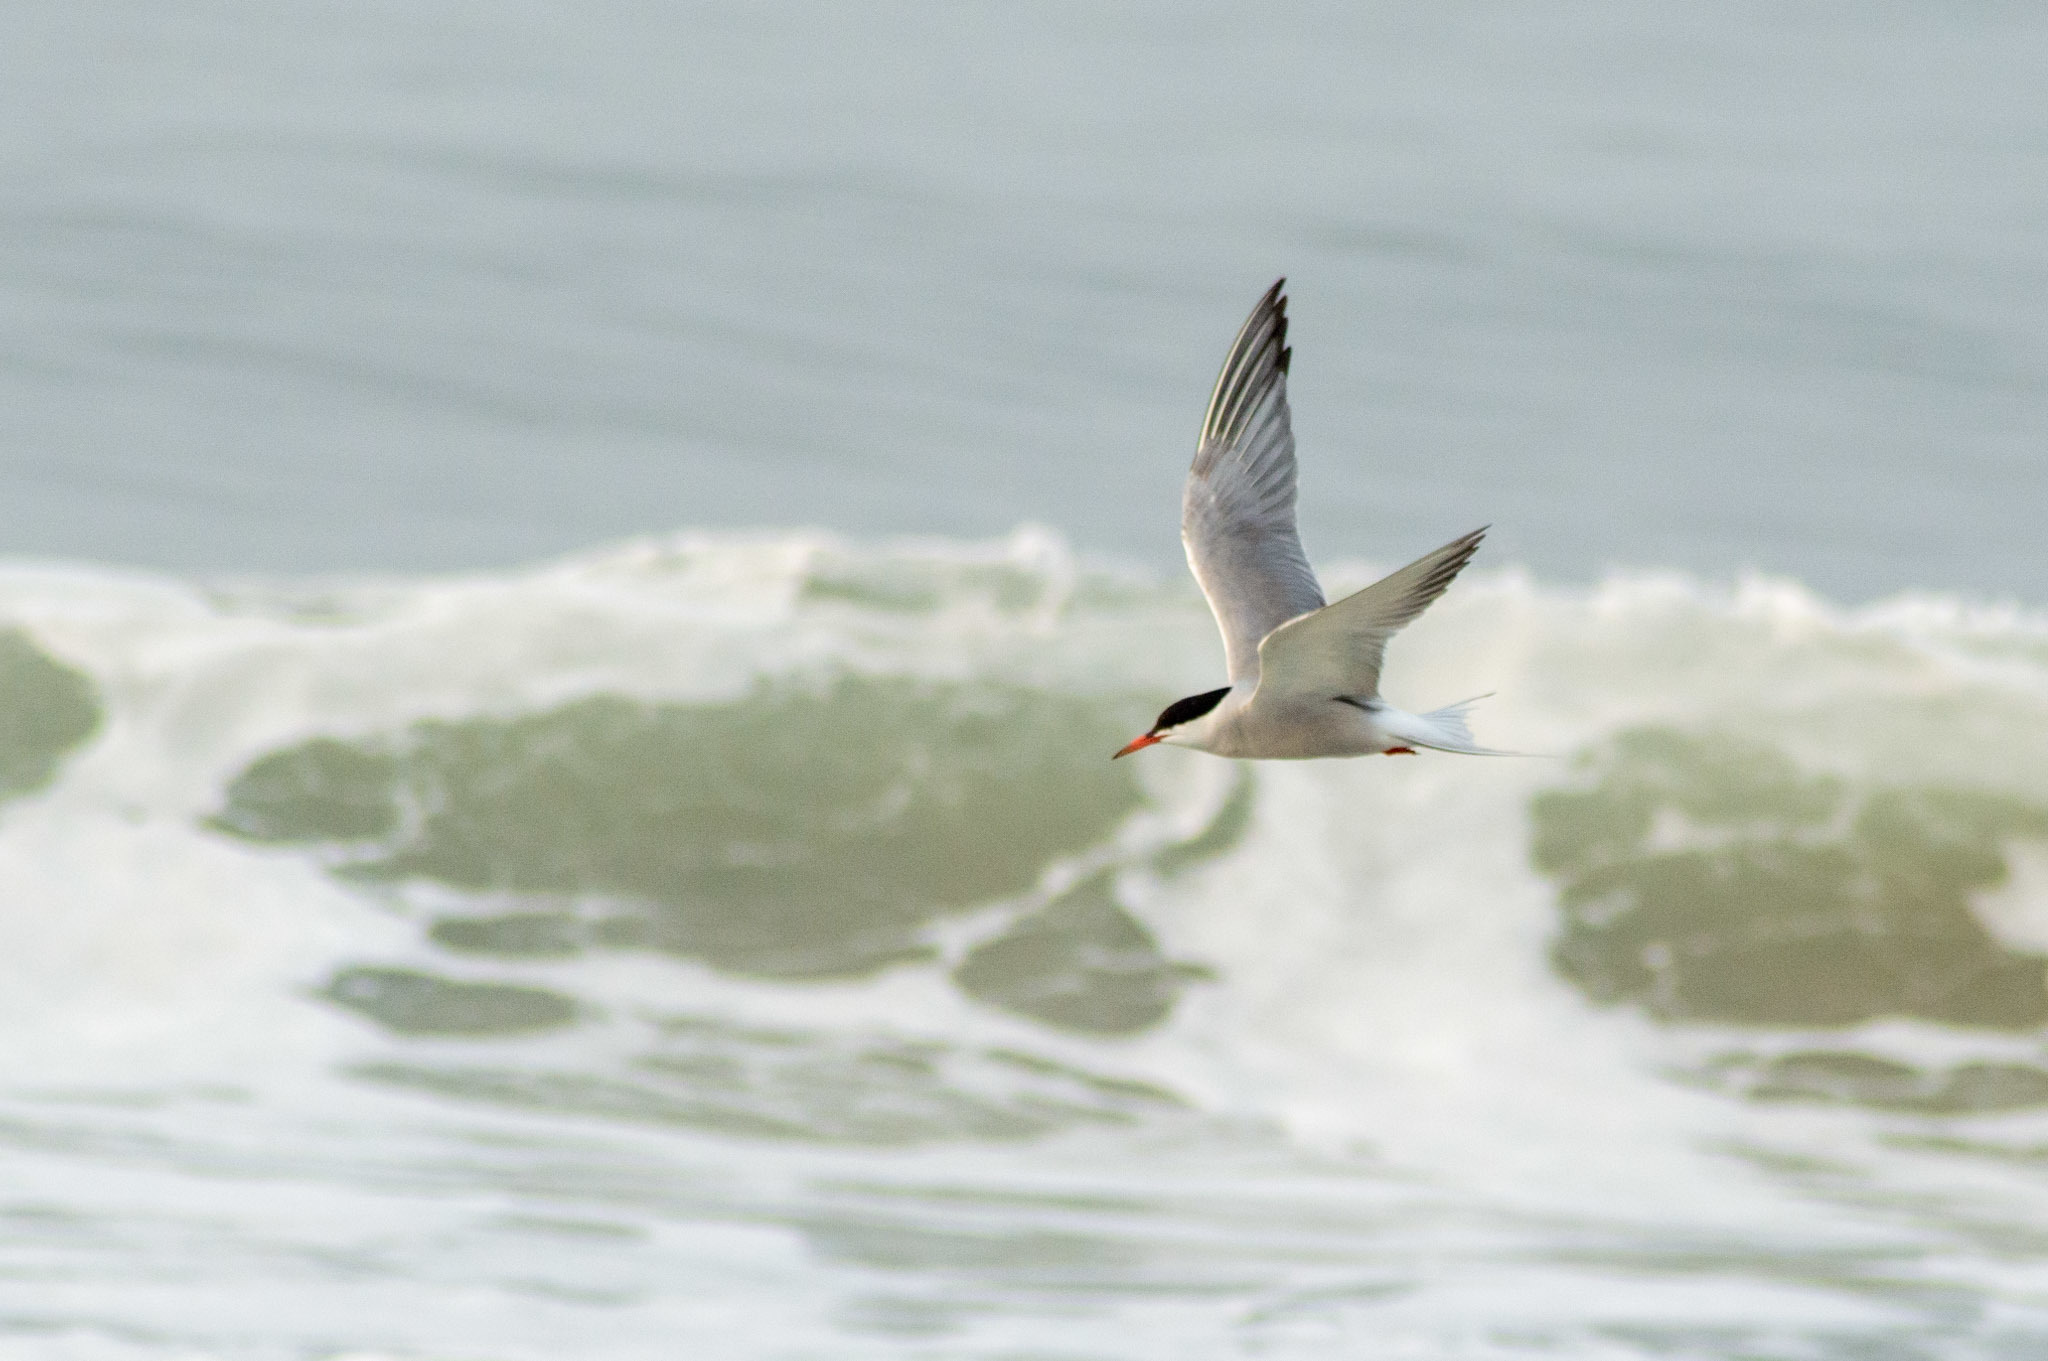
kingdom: Animalia
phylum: Chordata
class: Aves
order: Charadriiformes
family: Laridae
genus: Sterna
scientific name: Sterna hirundo
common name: Common tern
